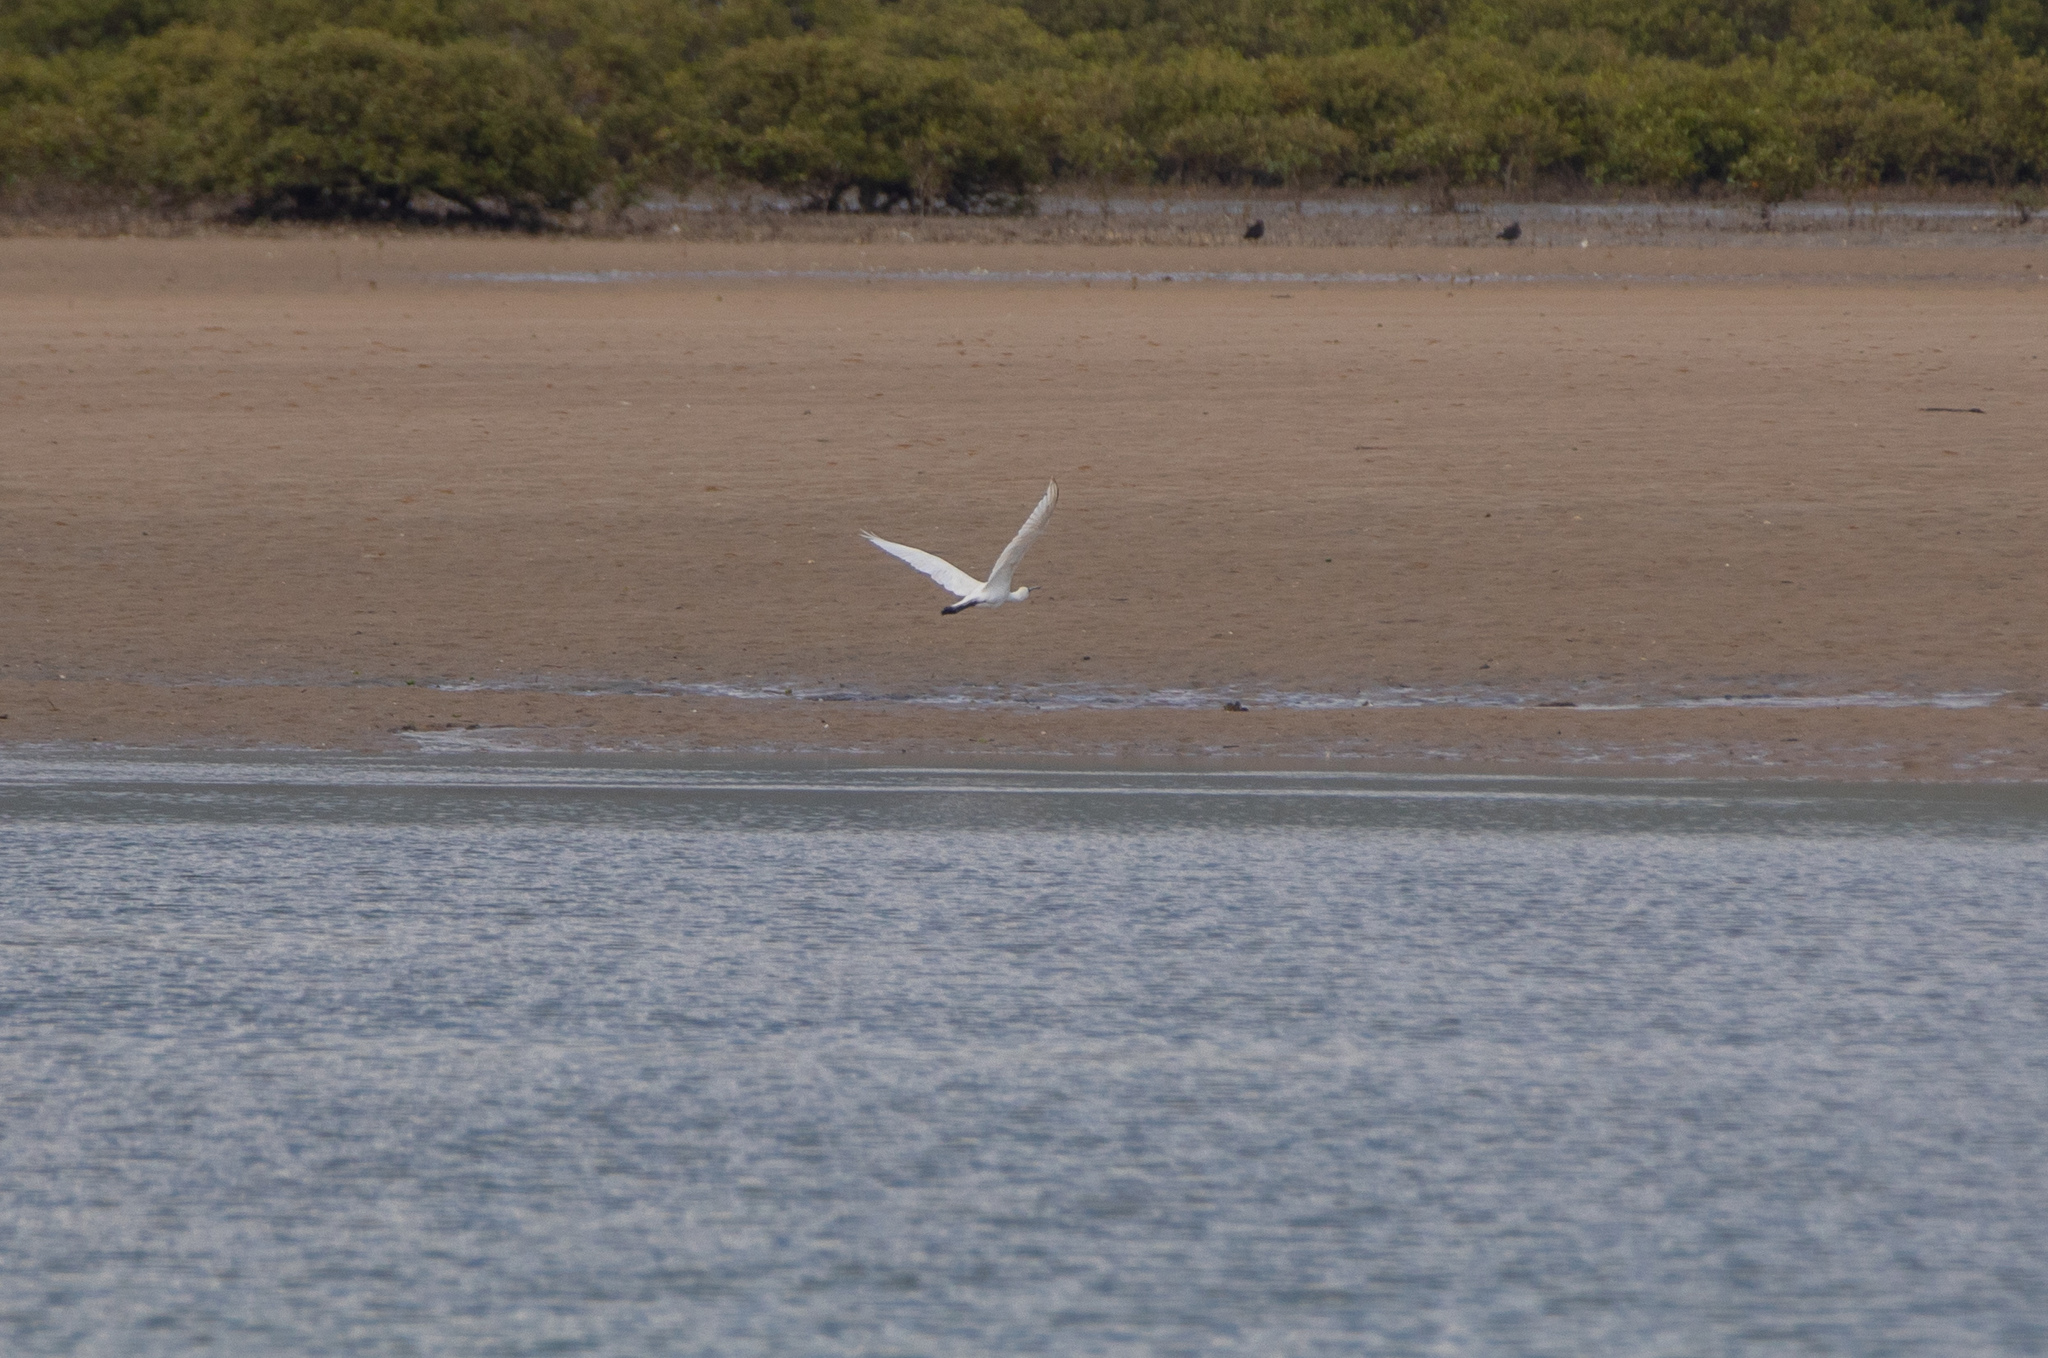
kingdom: Animalia
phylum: Chordata
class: Aves
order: Pelecaniformes
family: Threskiornithidae
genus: Platalea
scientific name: Platalea regia
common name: Royal spoonbill
